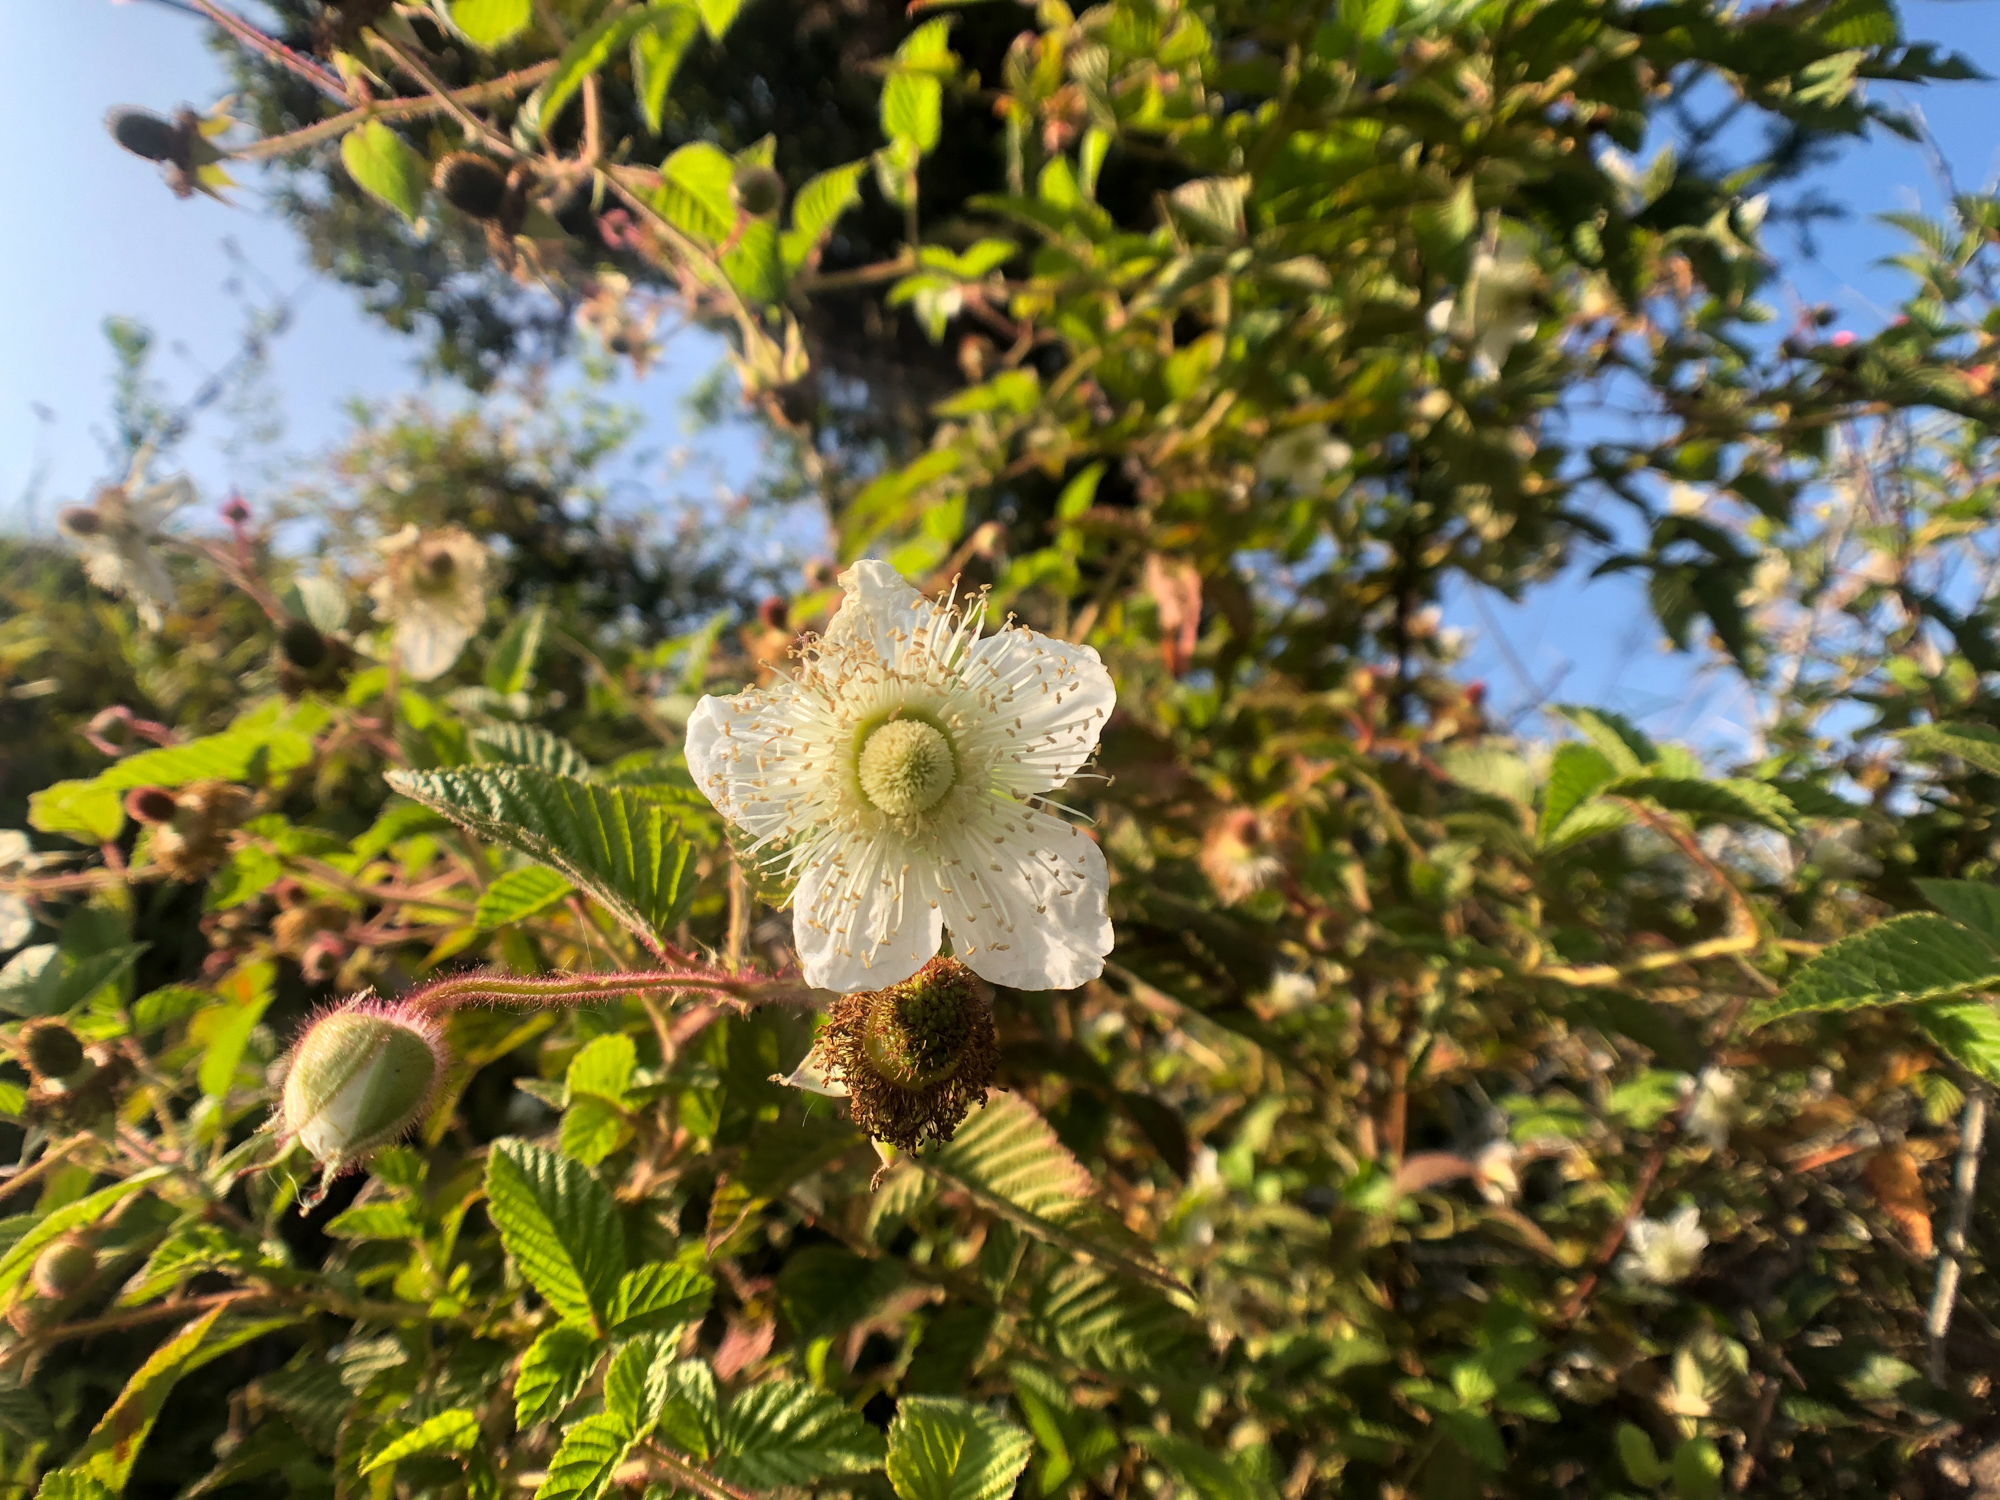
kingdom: Plantae
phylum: Tracheophyta
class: Magnoliopsida
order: Rosales
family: Rosaceae
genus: Rubus
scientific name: Rubus croceacanthus
